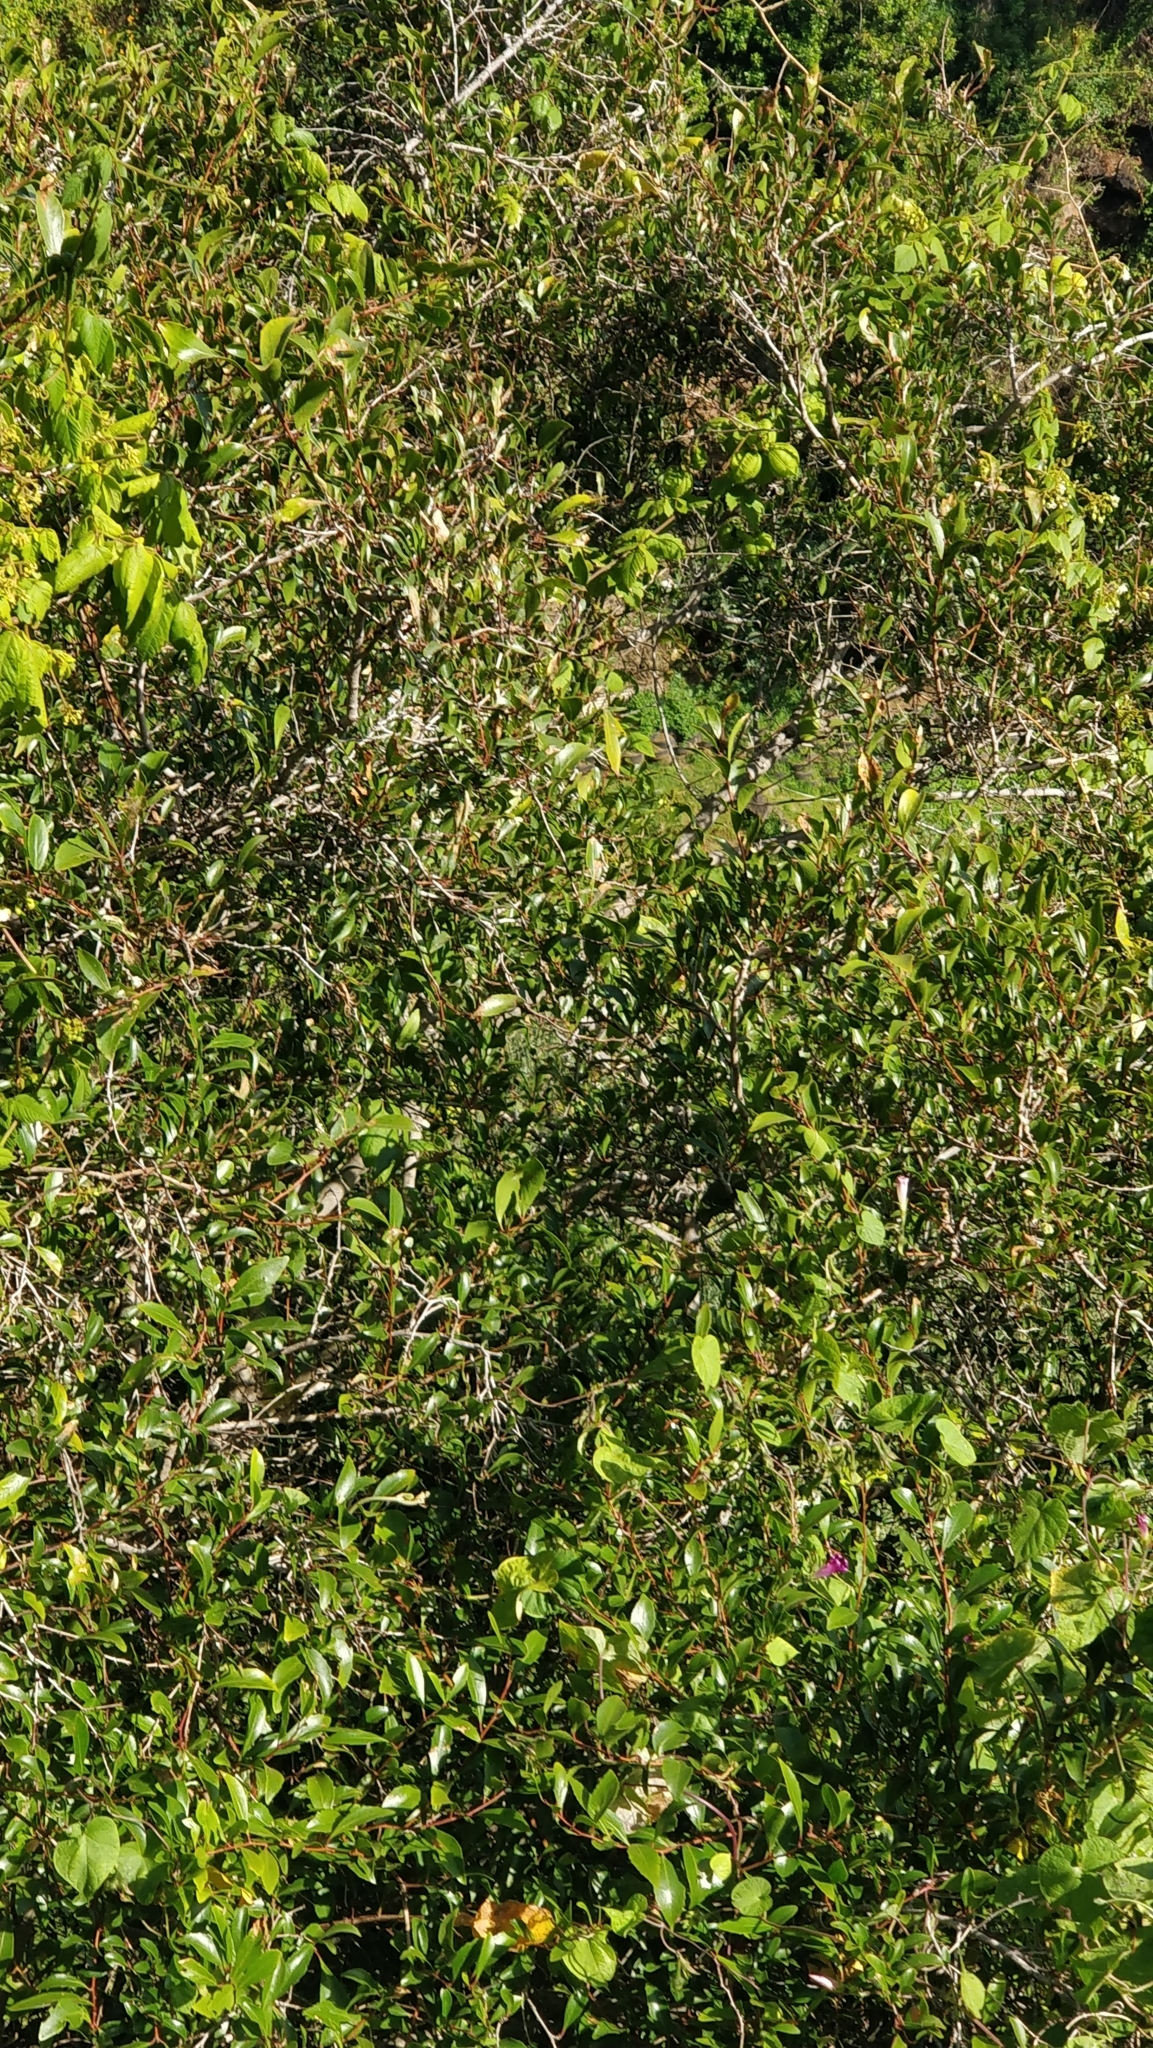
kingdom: Plantae
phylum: Tracheophyta
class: Magnoliopsida
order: Celastrales
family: Celastraceae
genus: Gymnosporia
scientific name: Gymnosporia dryandri
